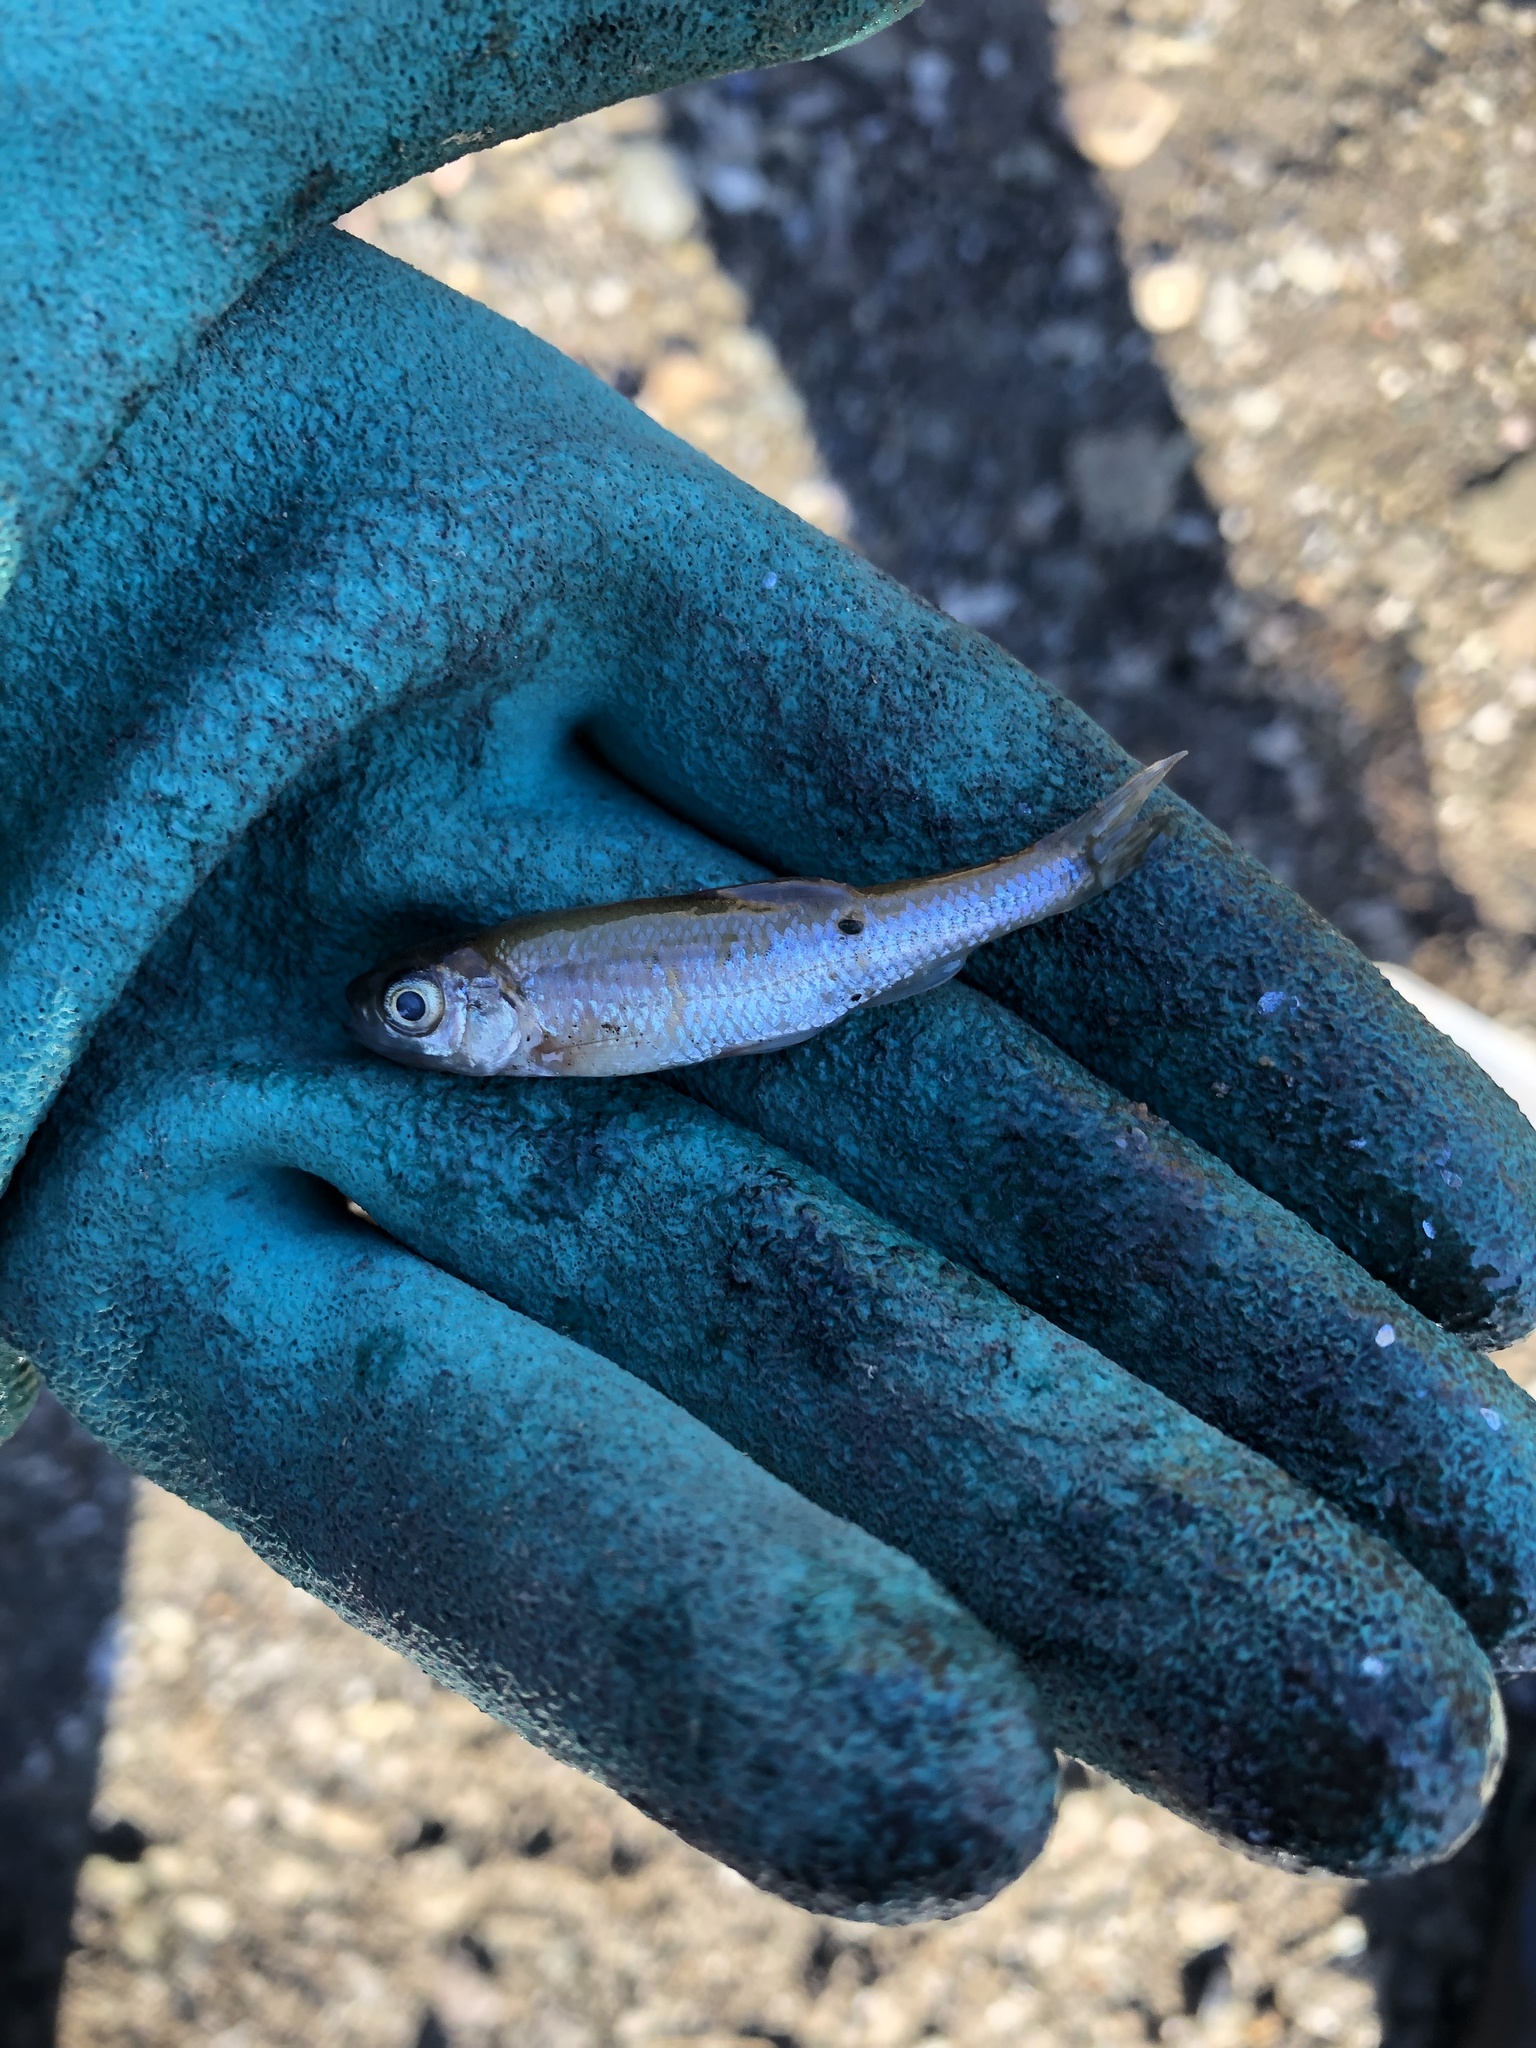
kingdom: Animalia
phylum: Chordata
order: Cypriniformes
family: Cyprinidae
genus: Luxilus
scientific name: Luxilus cornutus
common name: Common shiner
